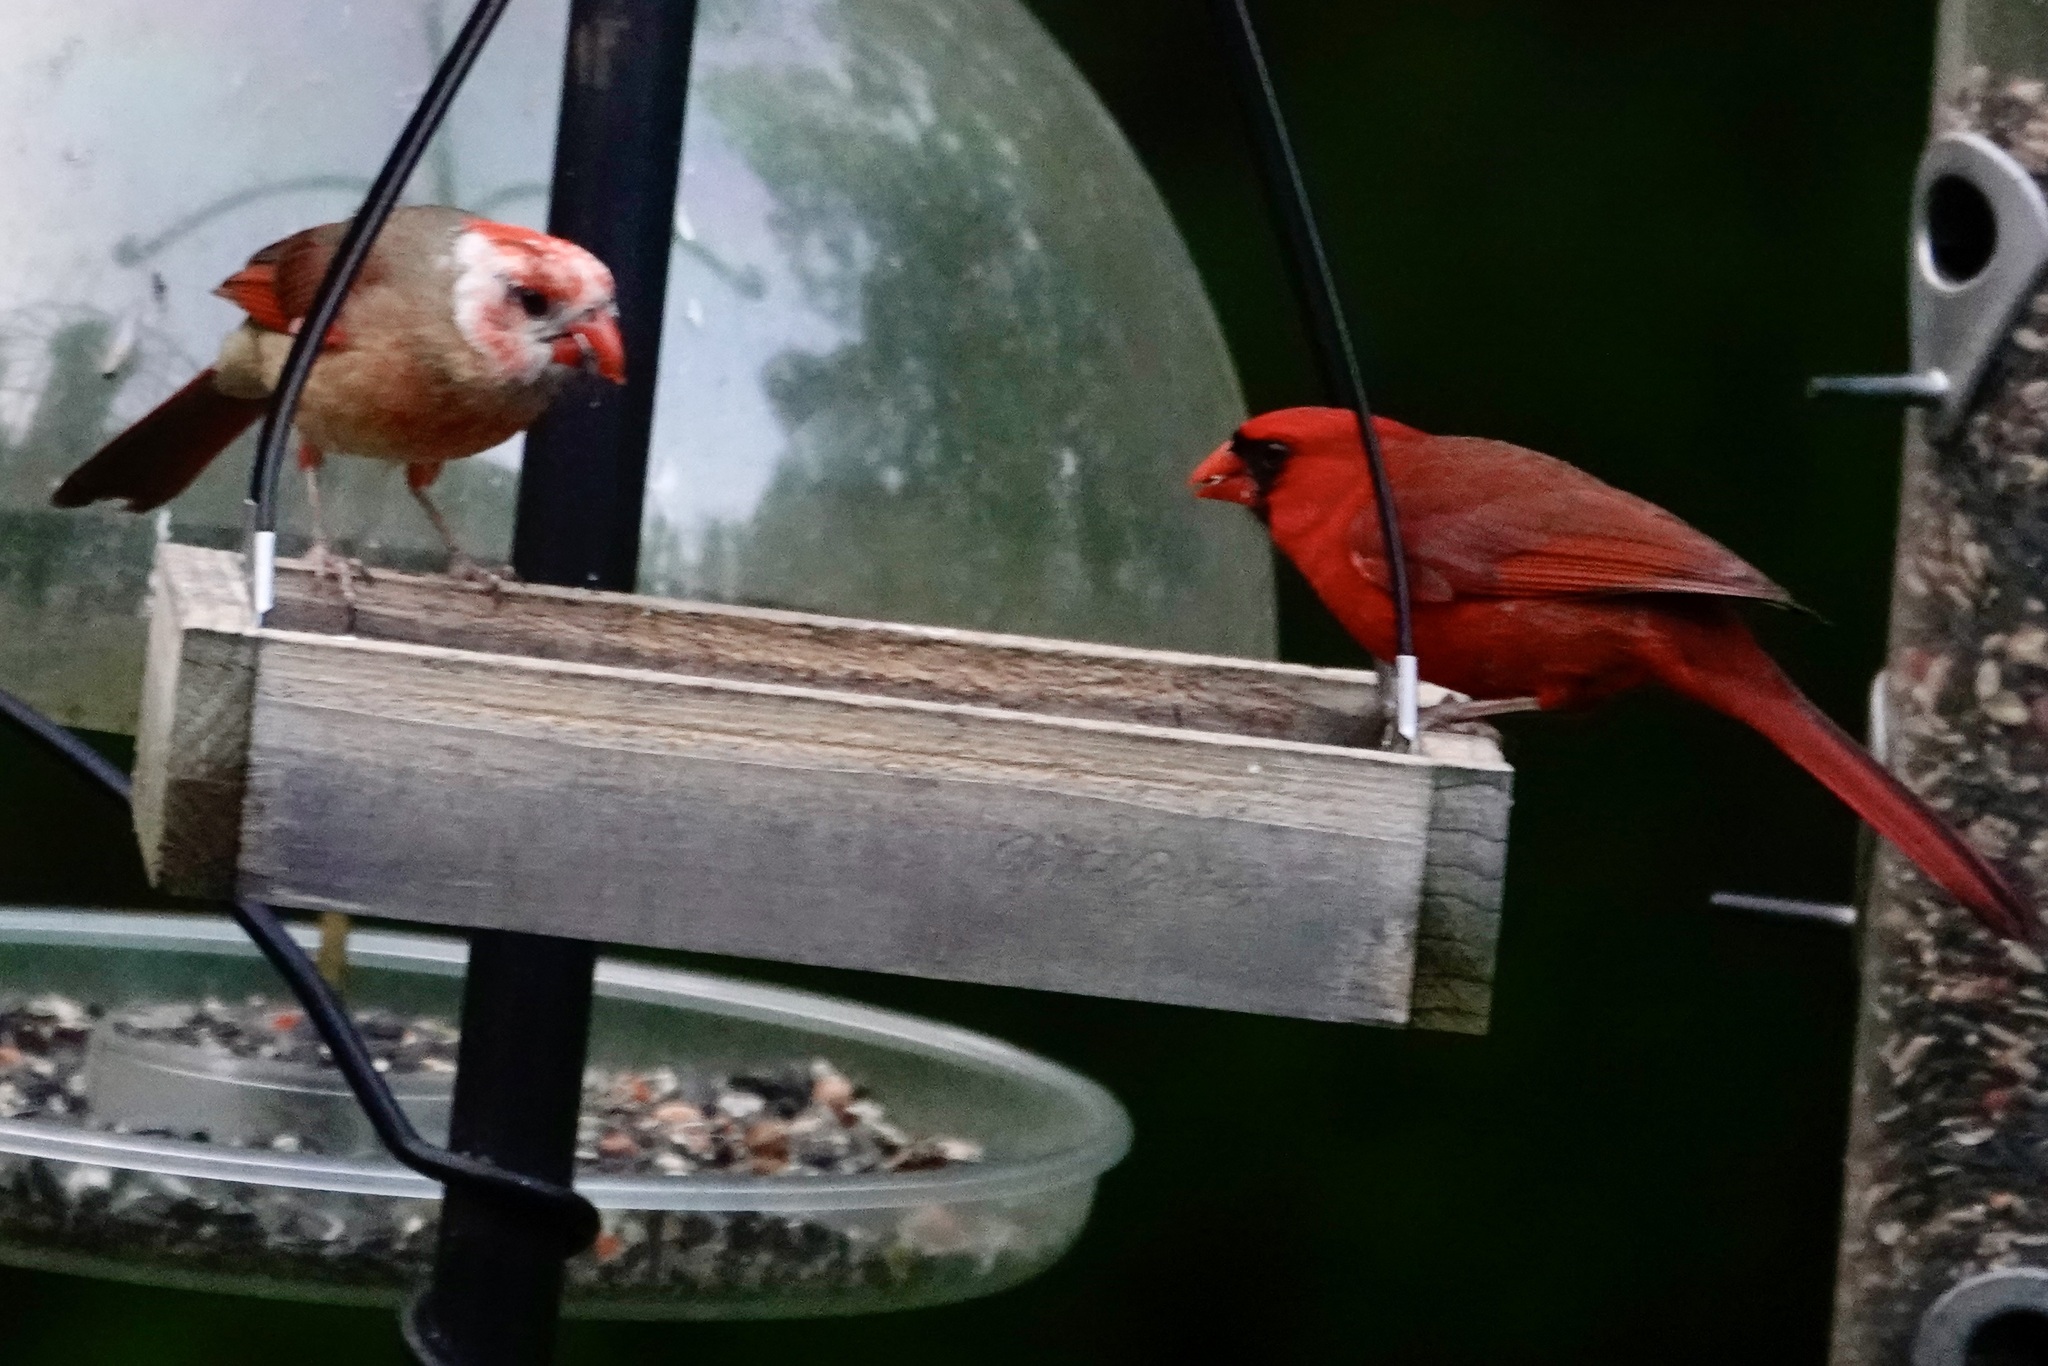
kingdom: Animalia
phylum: Chordata
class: Aves
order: Passeriformes
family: Cardinalidae
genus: Cardinalis
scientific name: Cardinalis cardinalis
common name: Northern cardinal
